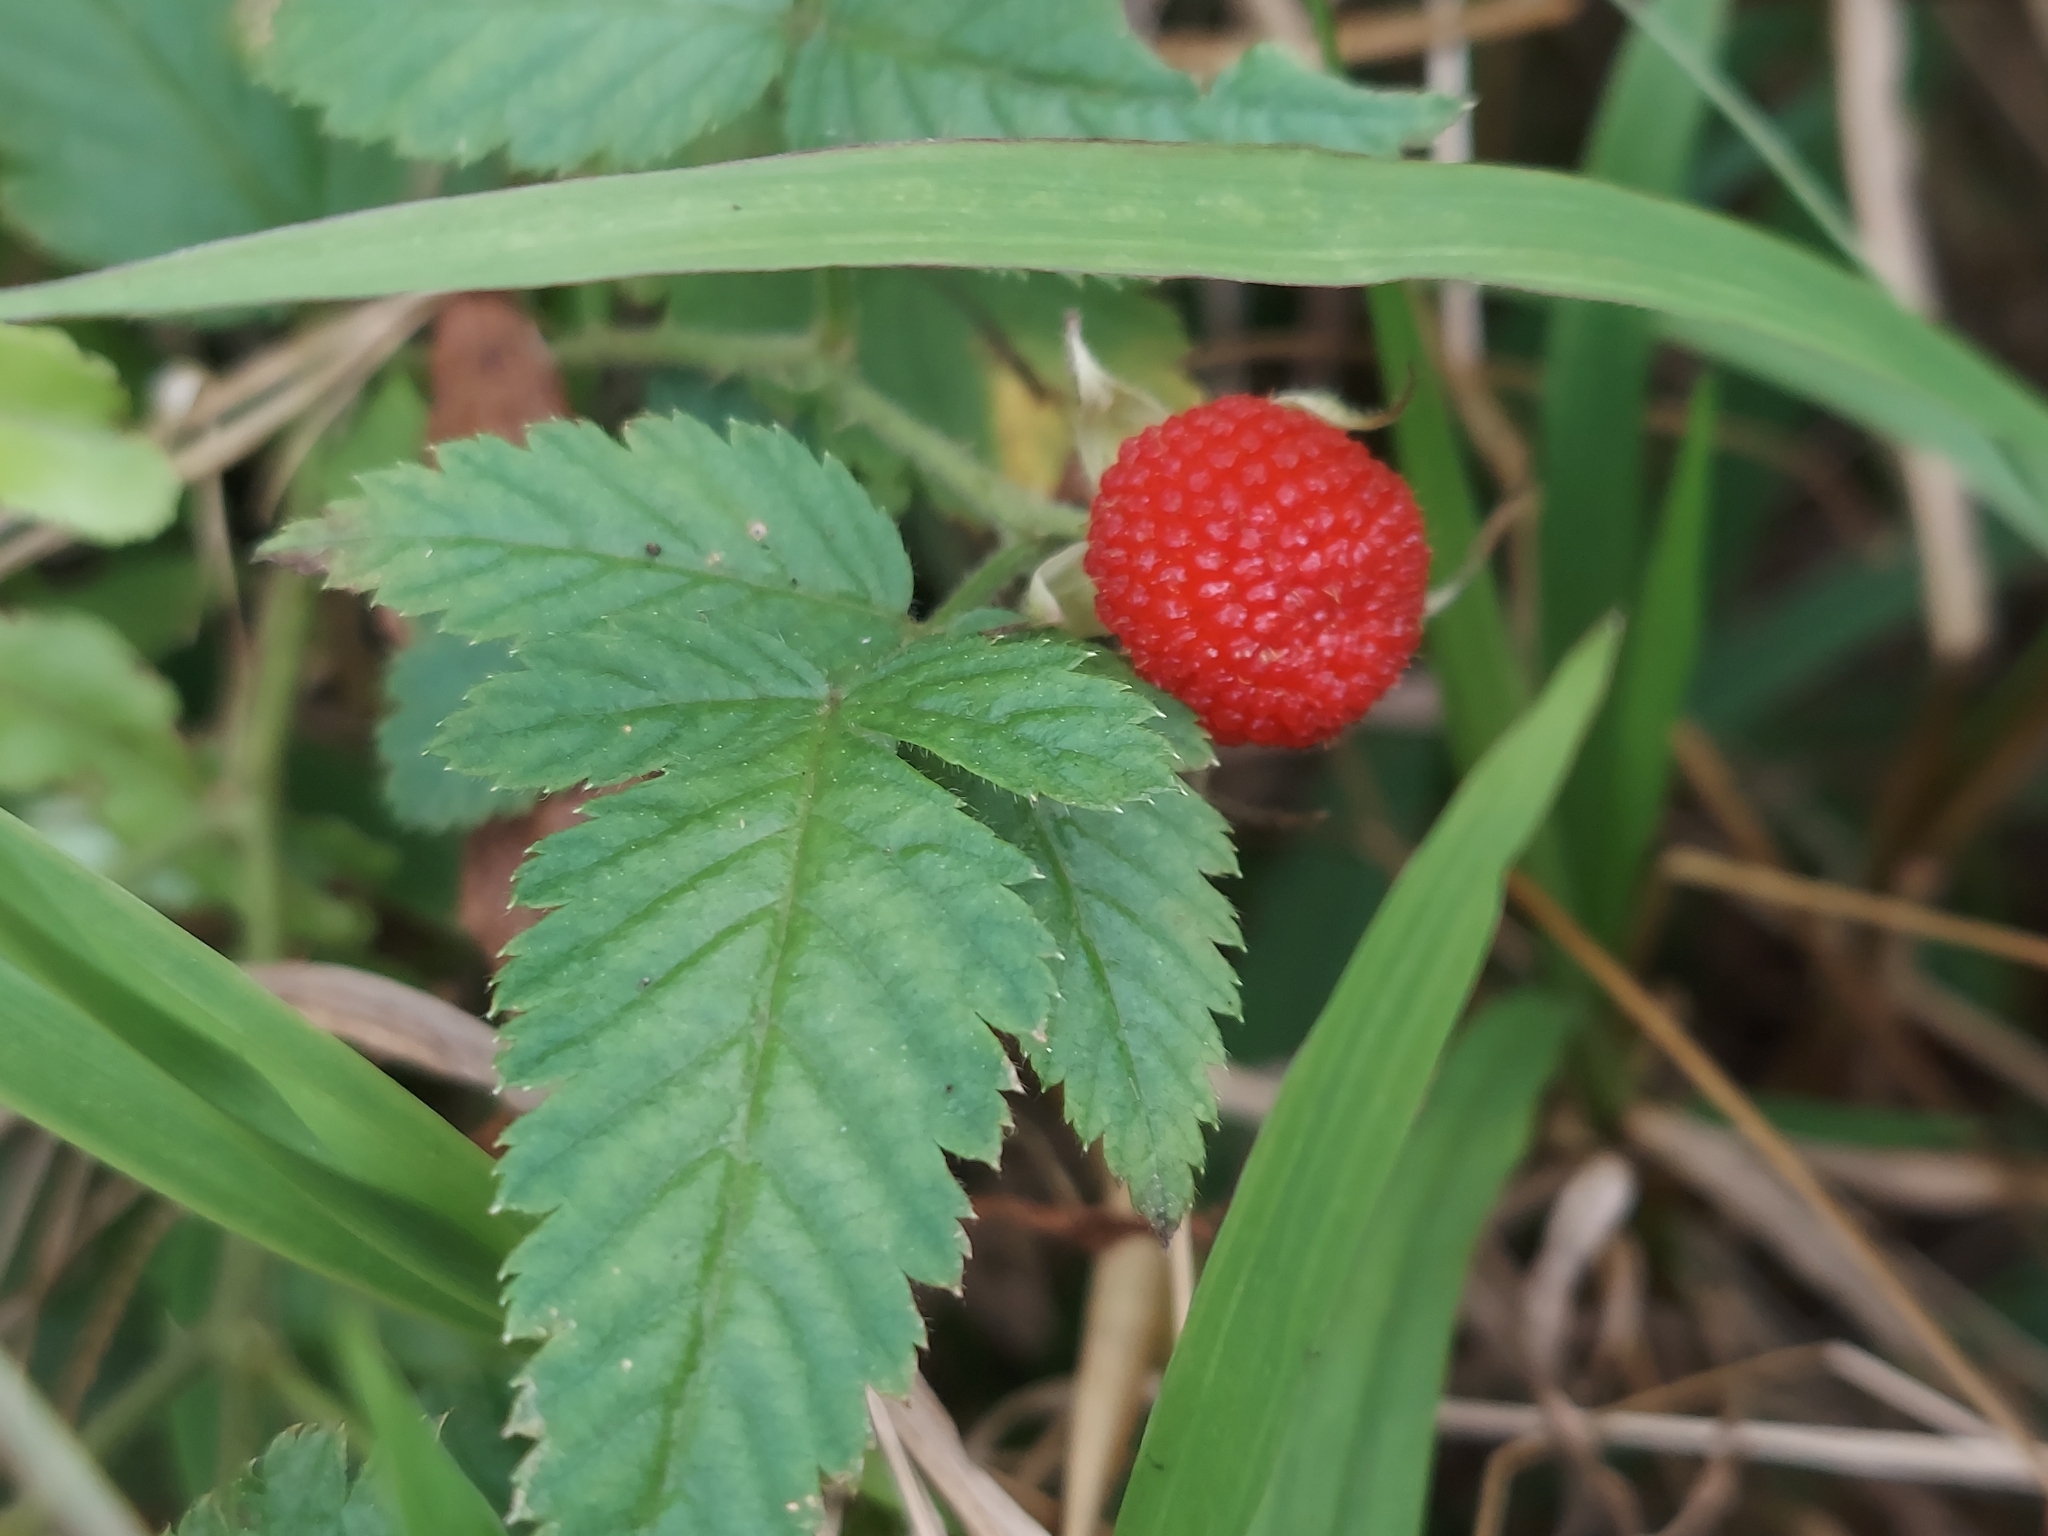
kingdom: Plantae
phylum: Tracheophyta
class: Magnoliopsida
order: Rosales
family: Rosaceae
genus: Rubus
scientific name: Rubus rosifolius
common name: Roseleaf raspberry
